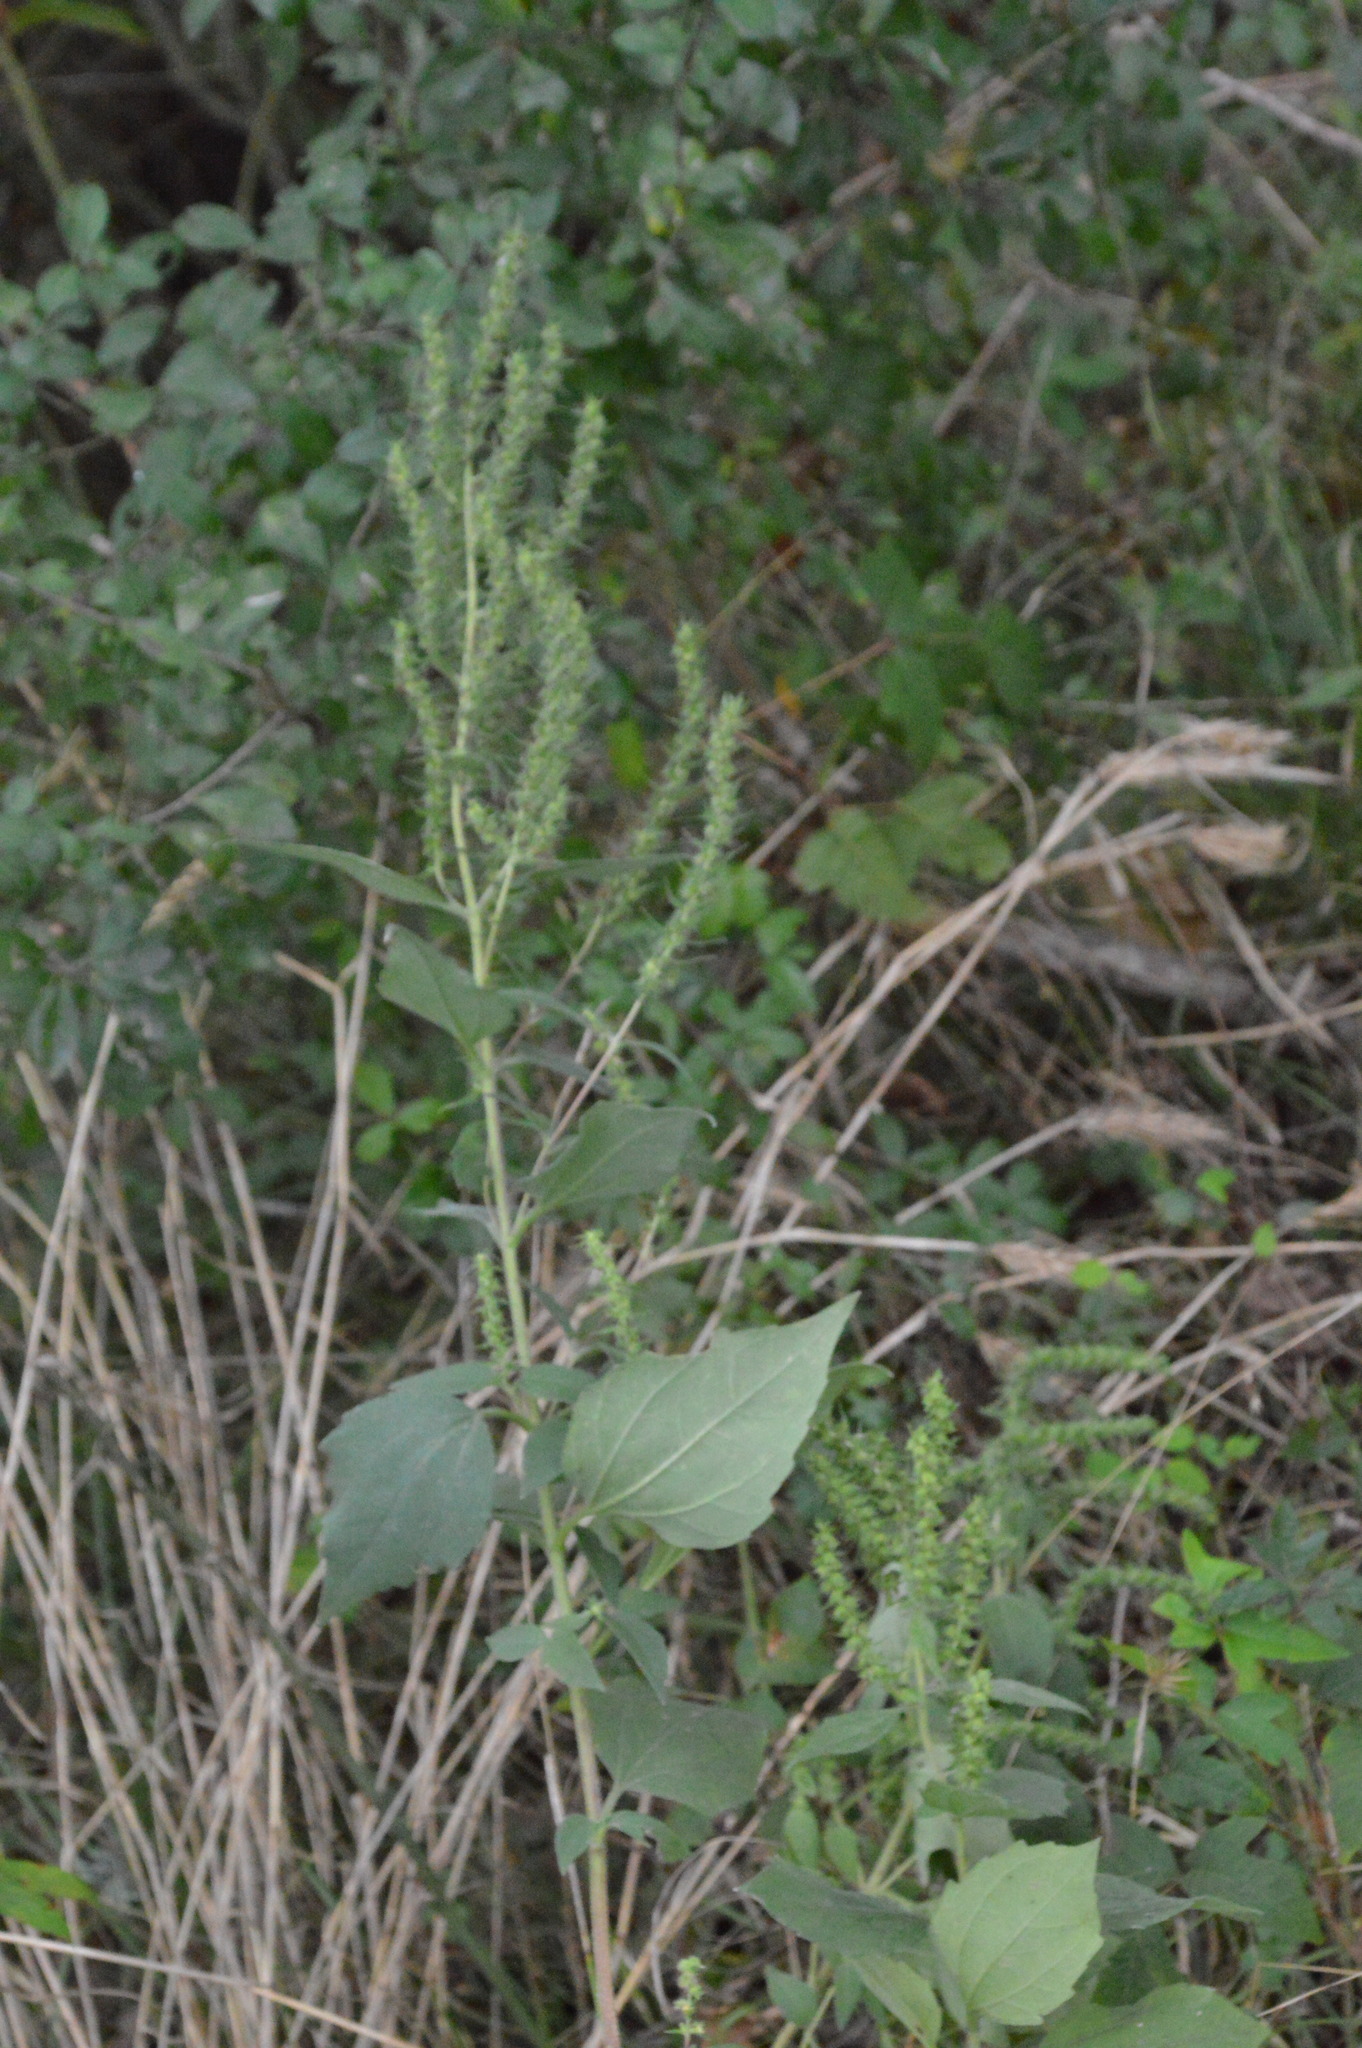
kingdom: Plantae
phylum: Tracheophyta
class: Magnoliopsida
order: Asterales
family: Asteraceae
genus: Iva
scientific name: Iva annua
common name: Marsh-elder
